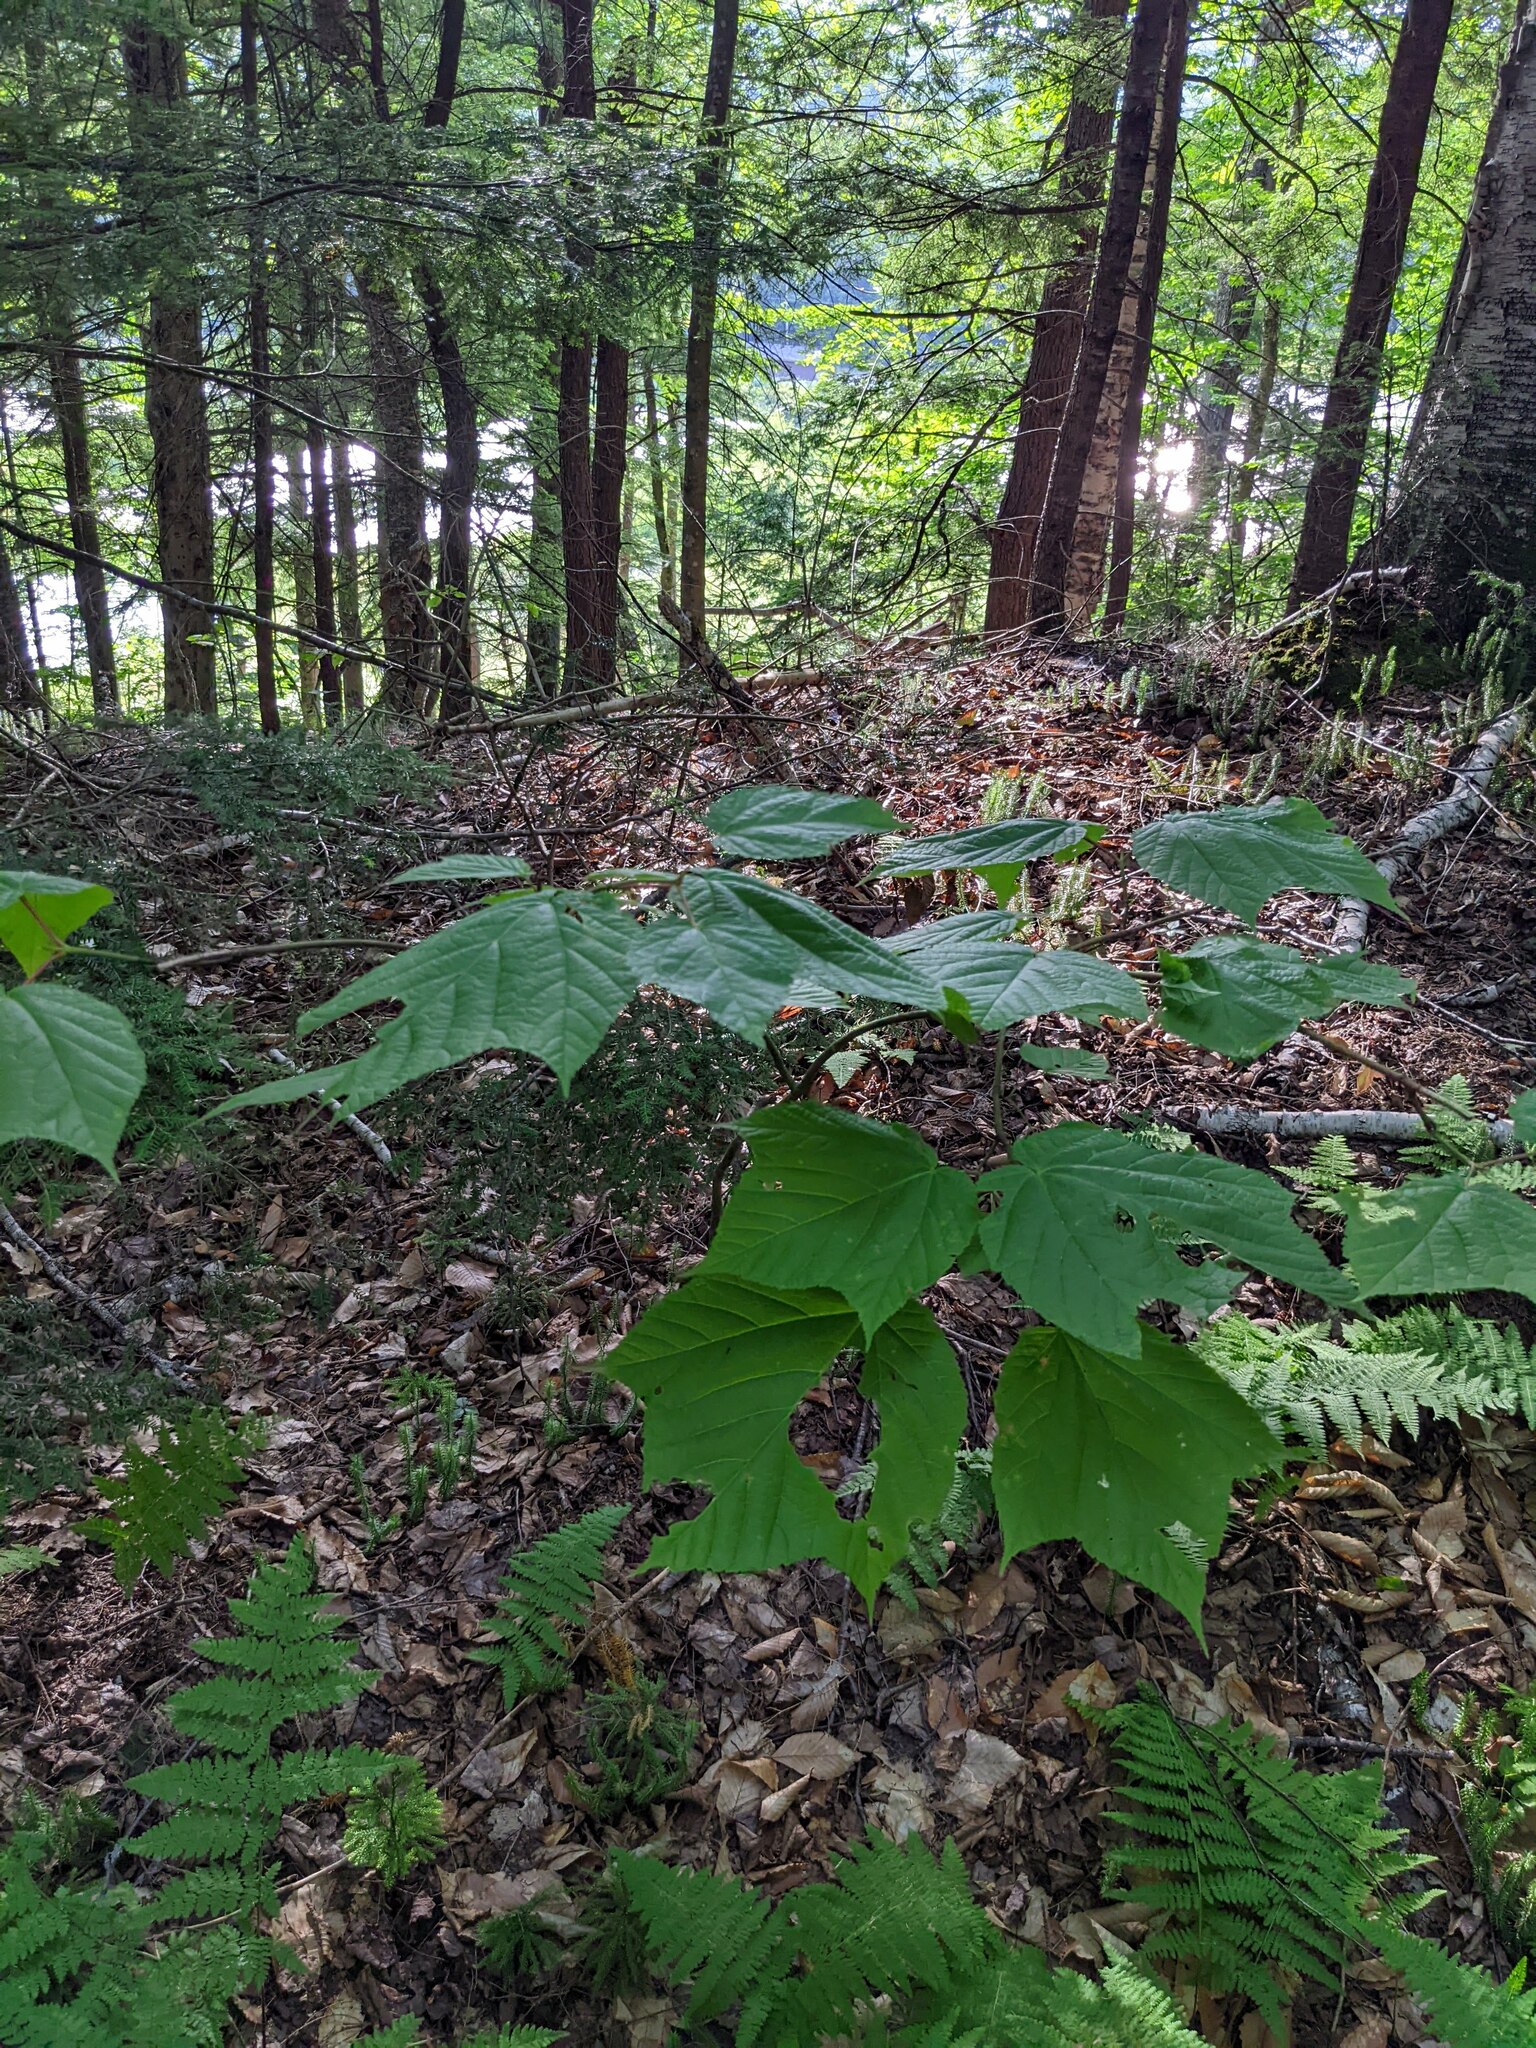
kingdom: Plantae
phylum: Tracheophyta
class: Magnoliopsida
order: Sapindales
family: Sapindaceae
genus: Acer
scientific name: Acer pensylvanicum
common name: Moosewood
